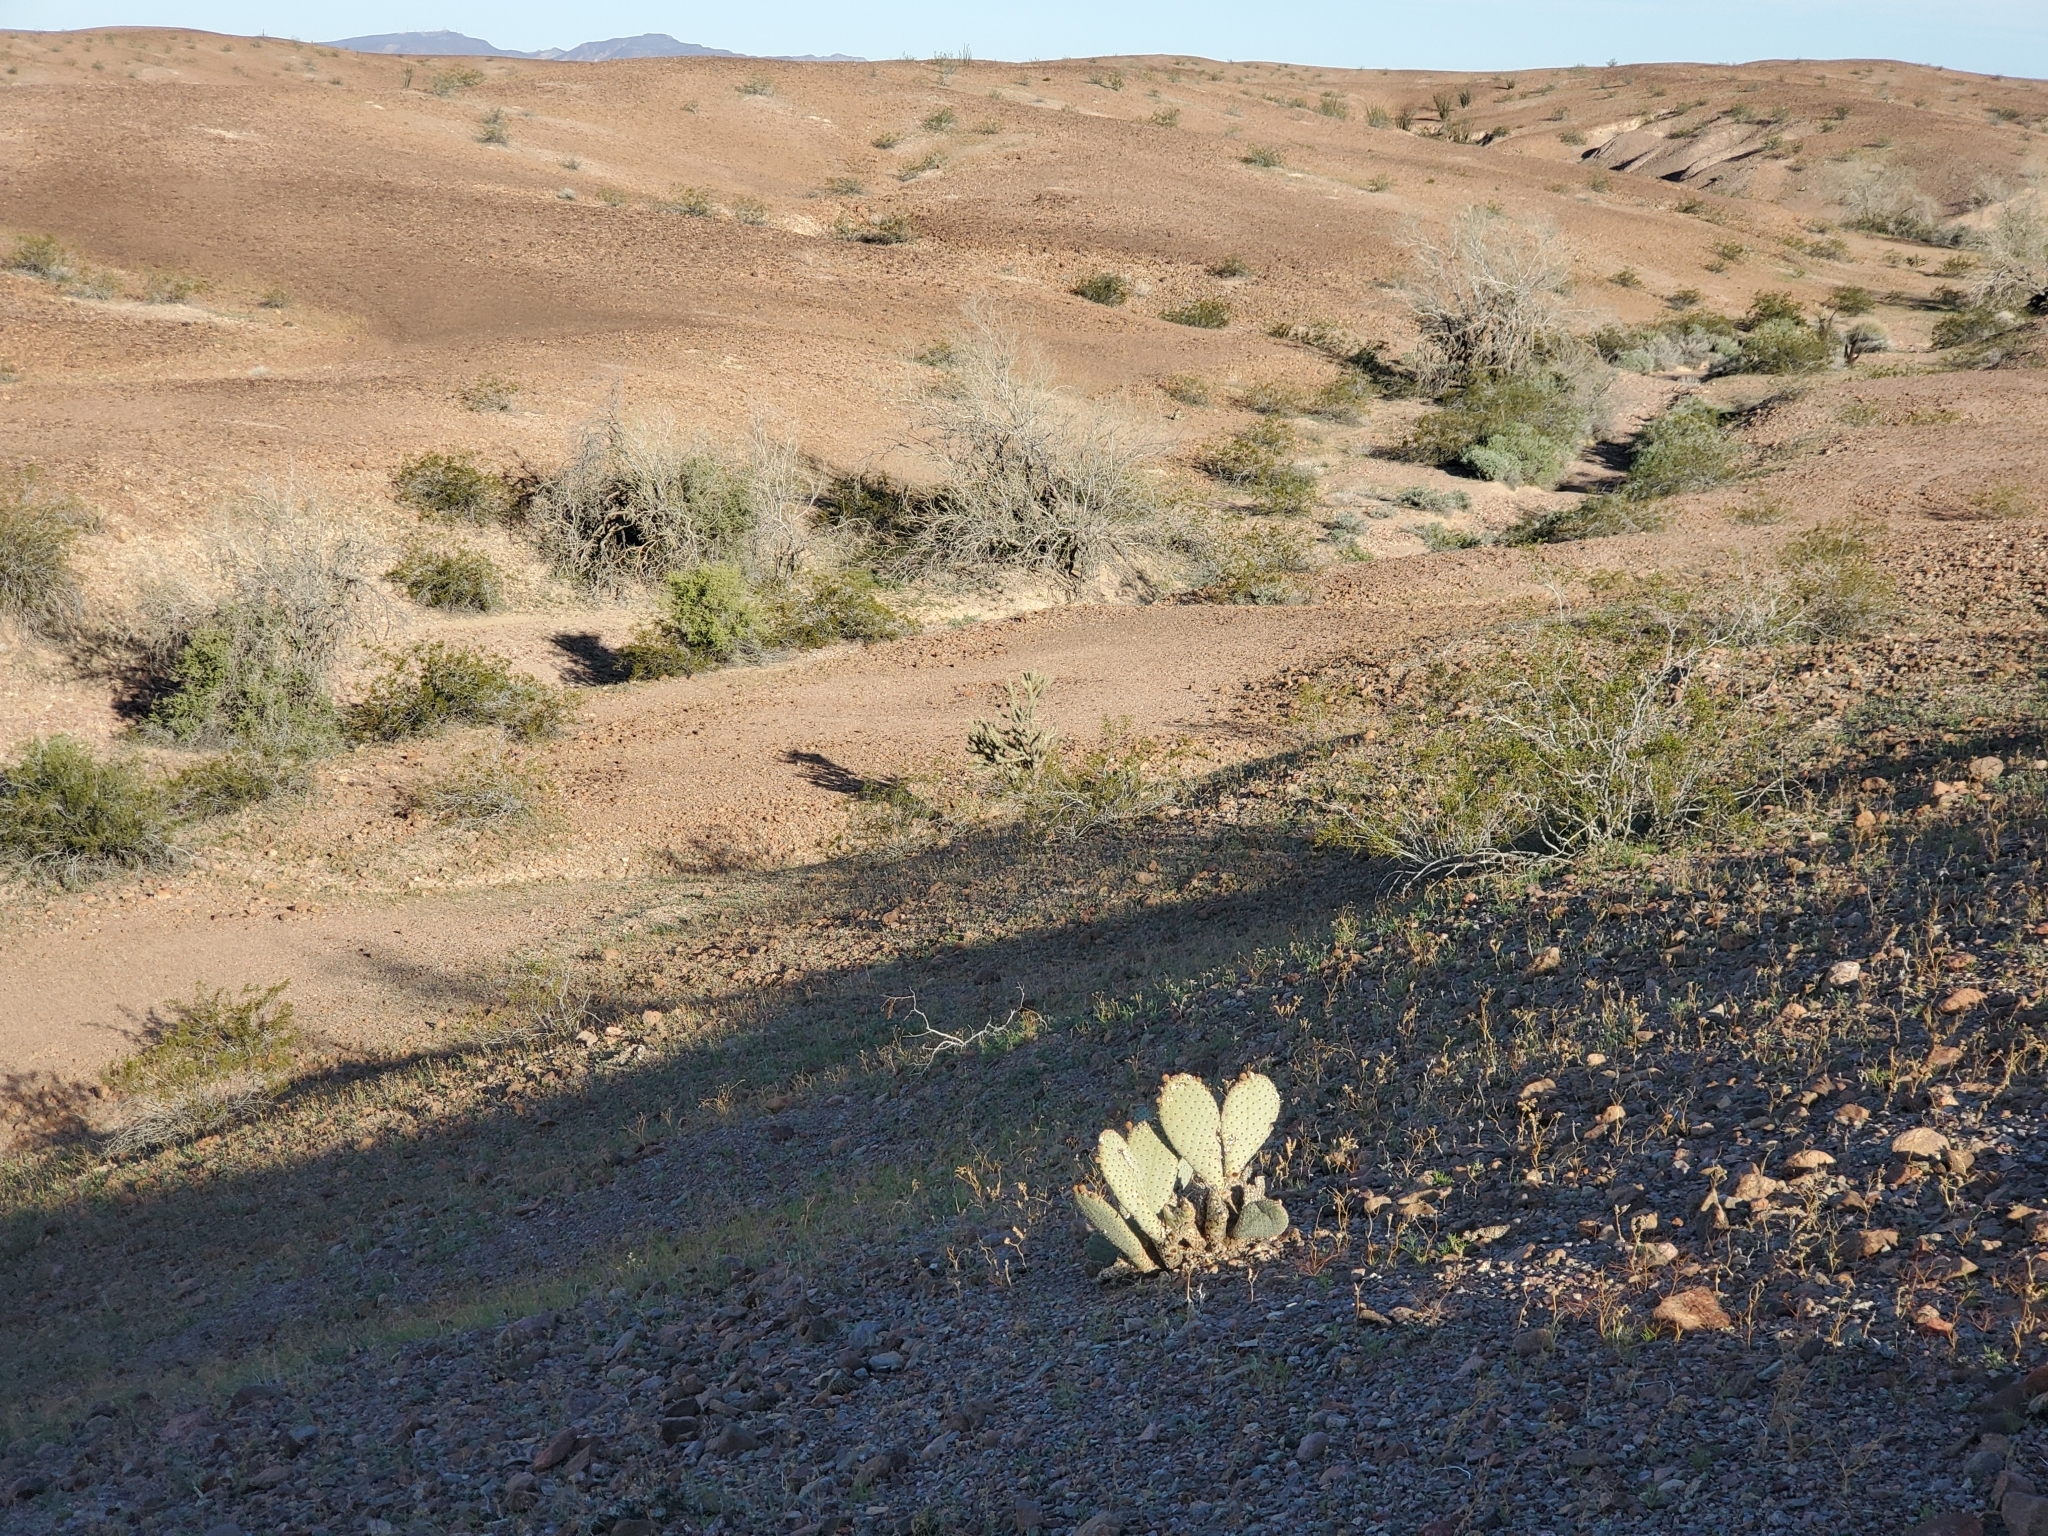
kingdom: Plantae
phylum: Tracheophyta
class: Magnoliopsida
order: Caryophyllales
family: Cactaceae
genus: Opuntia
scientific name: Opuntia basilaris
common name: Beavertail prickly-pear
